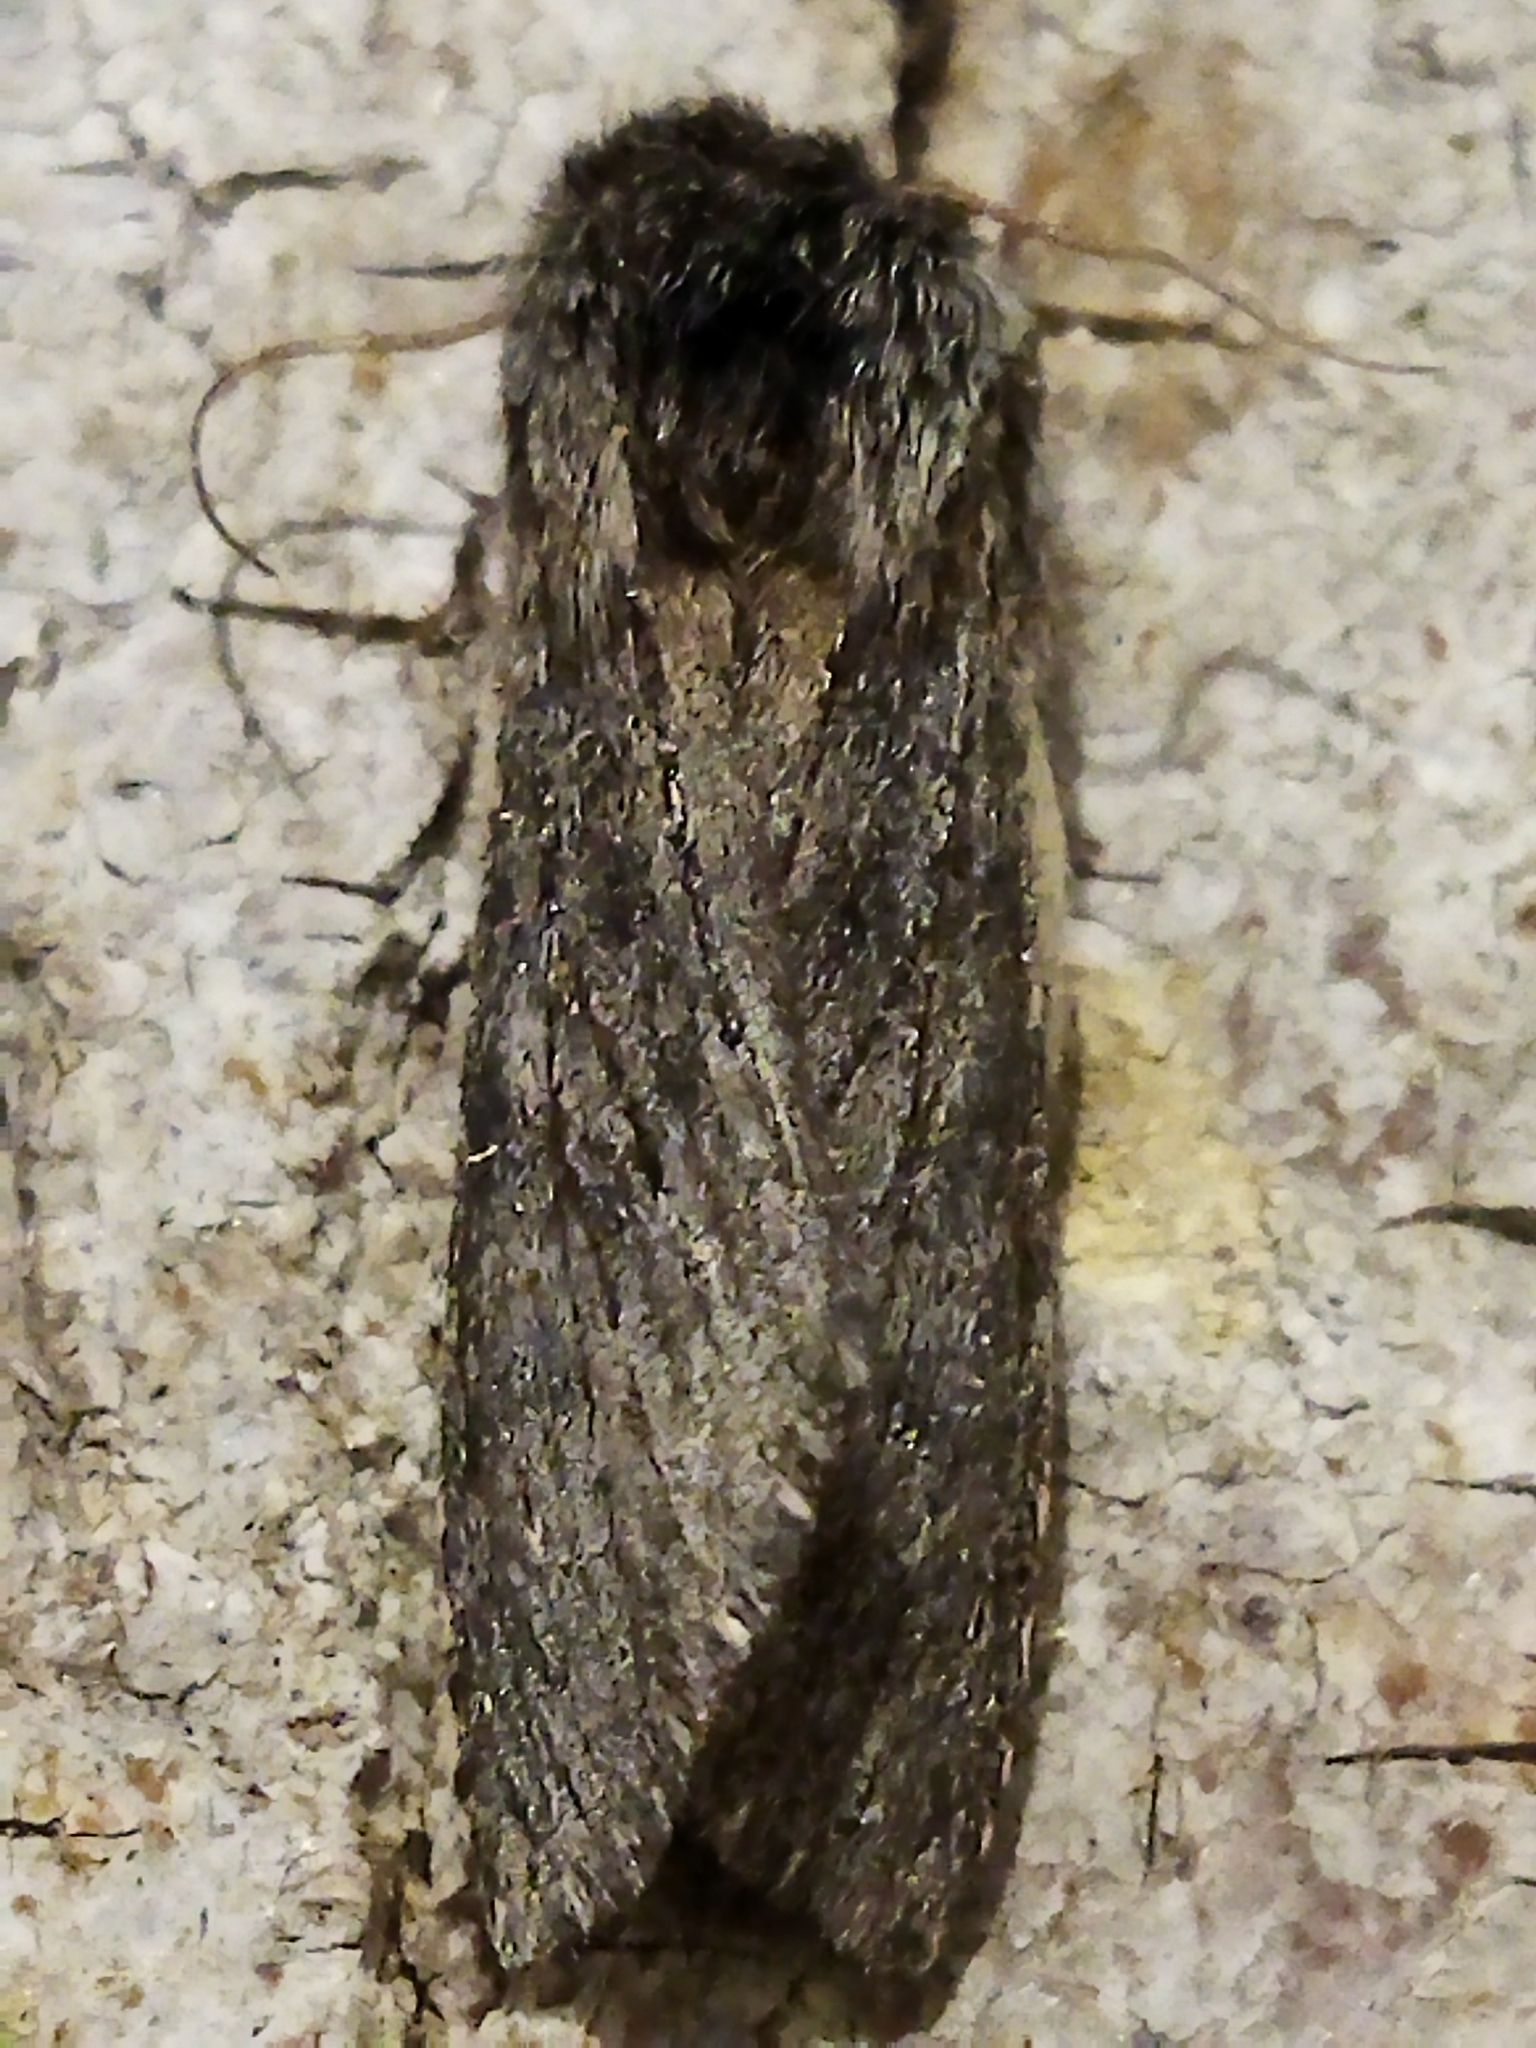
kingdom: Animalia
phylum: Arthropoda
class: Insecta
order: Lepidoptera
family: Notodontidae
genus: Dicranura
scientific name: Dicranura ulmi
